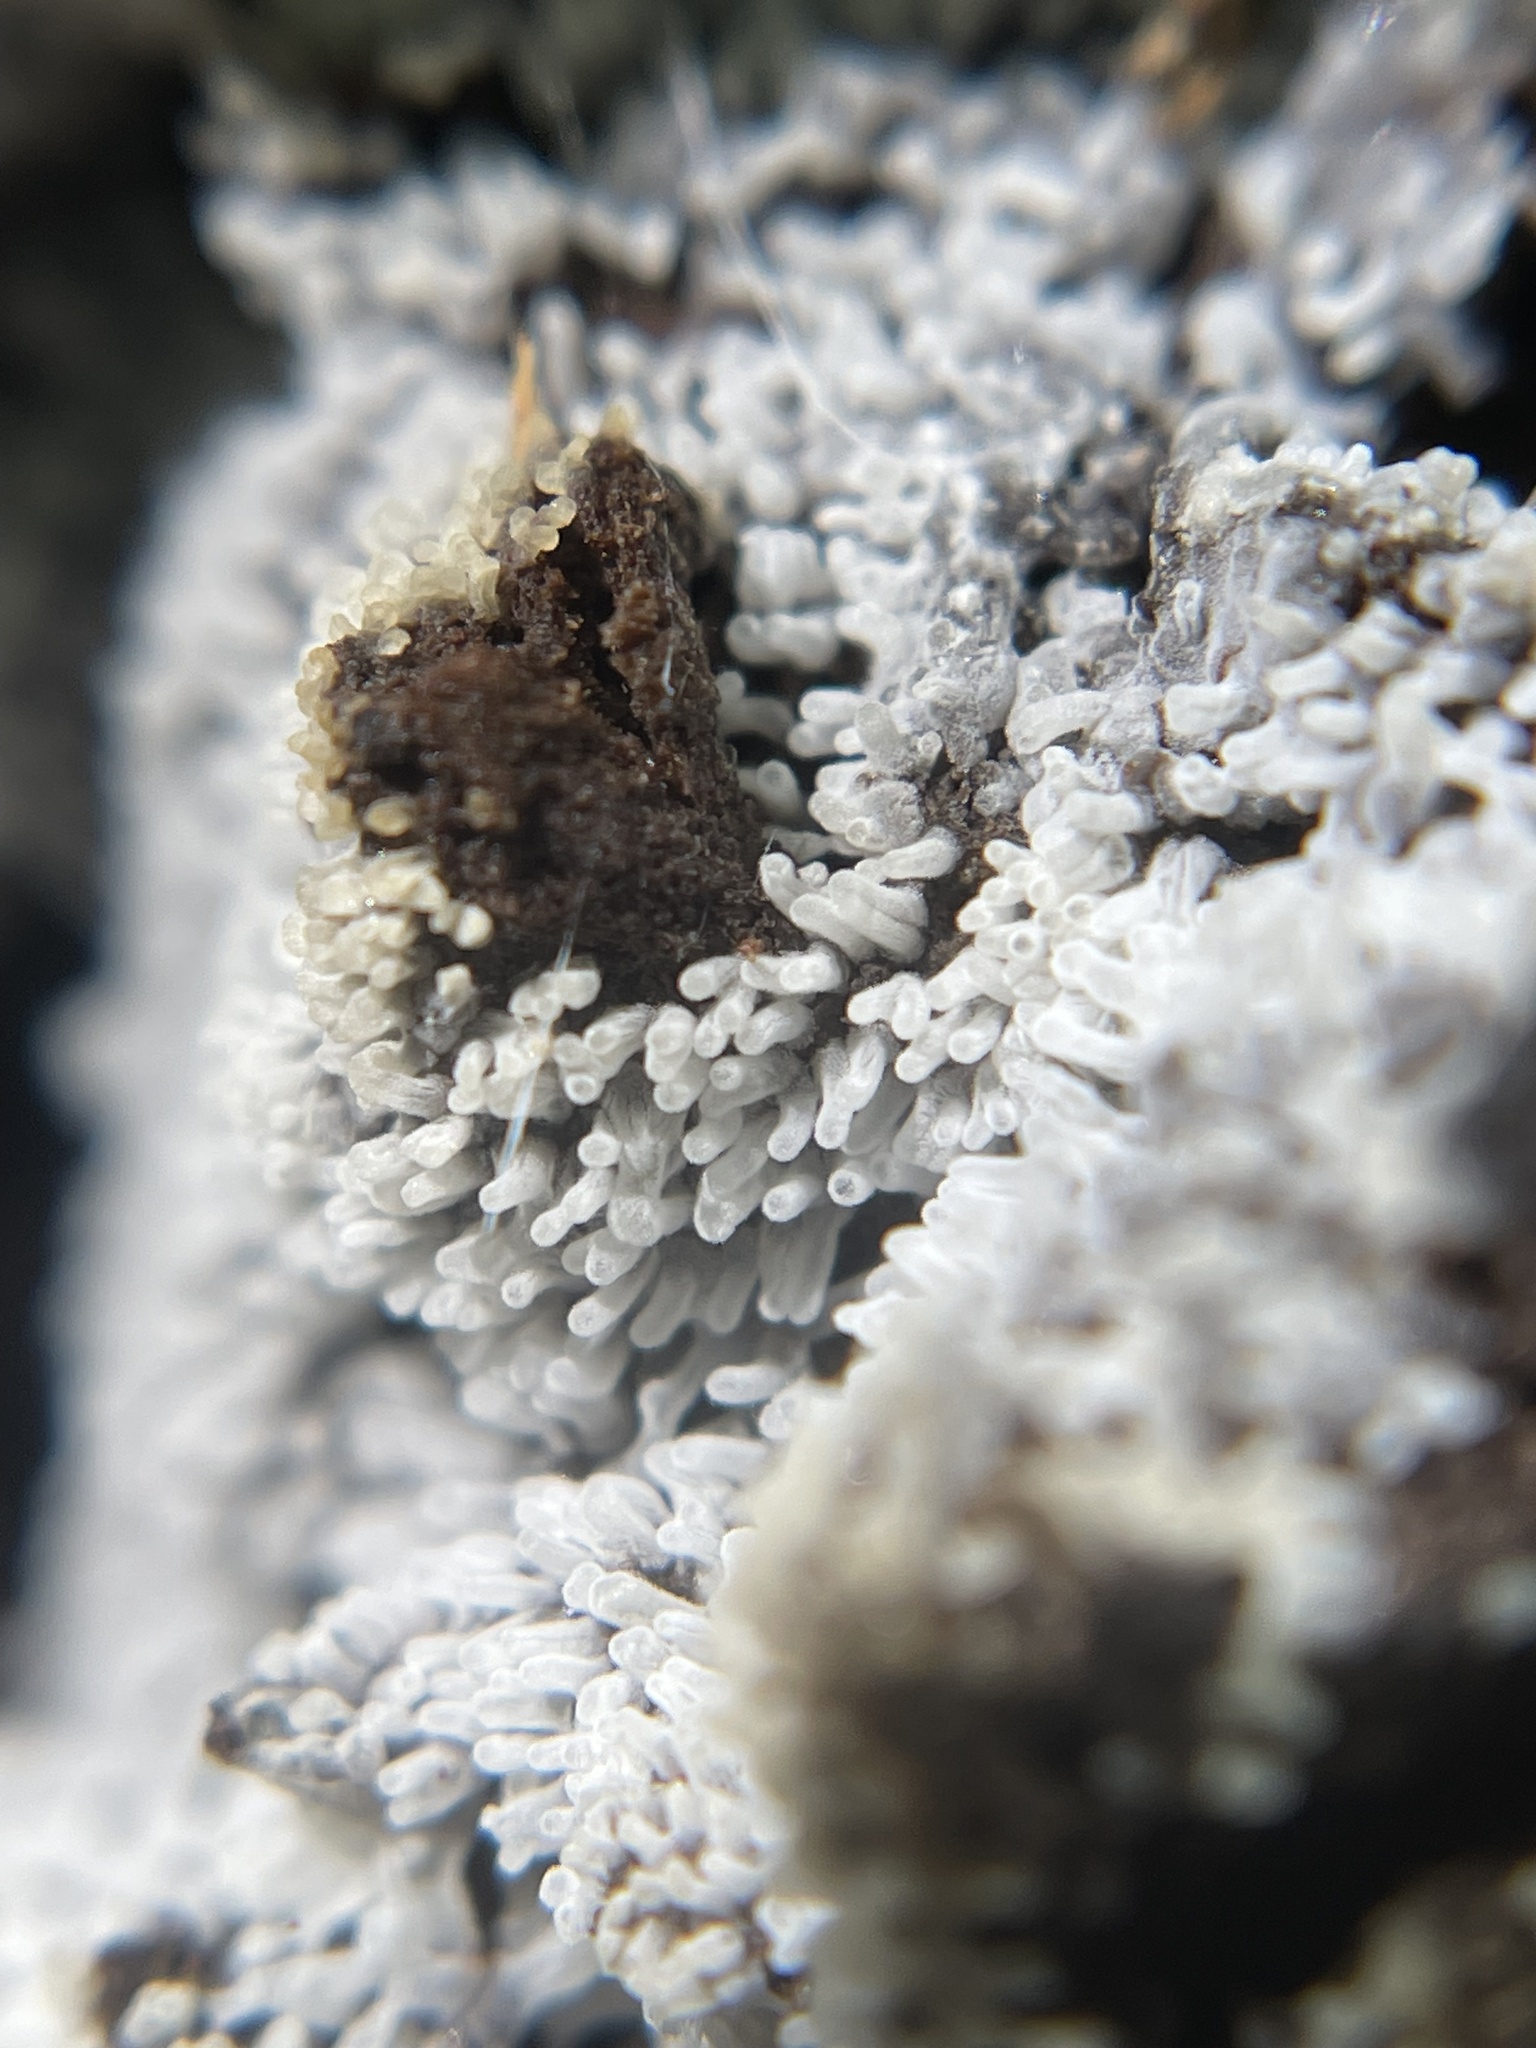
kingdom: Protozoa
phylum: Mycetozoa
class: Protosteliomycetes
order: Ceratiomyxales
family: Ceratiomyxaceae
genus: Ceratiomyxa
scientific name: Ceratiomyxa fruticulosa
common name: Honeycomb coral slime mold
